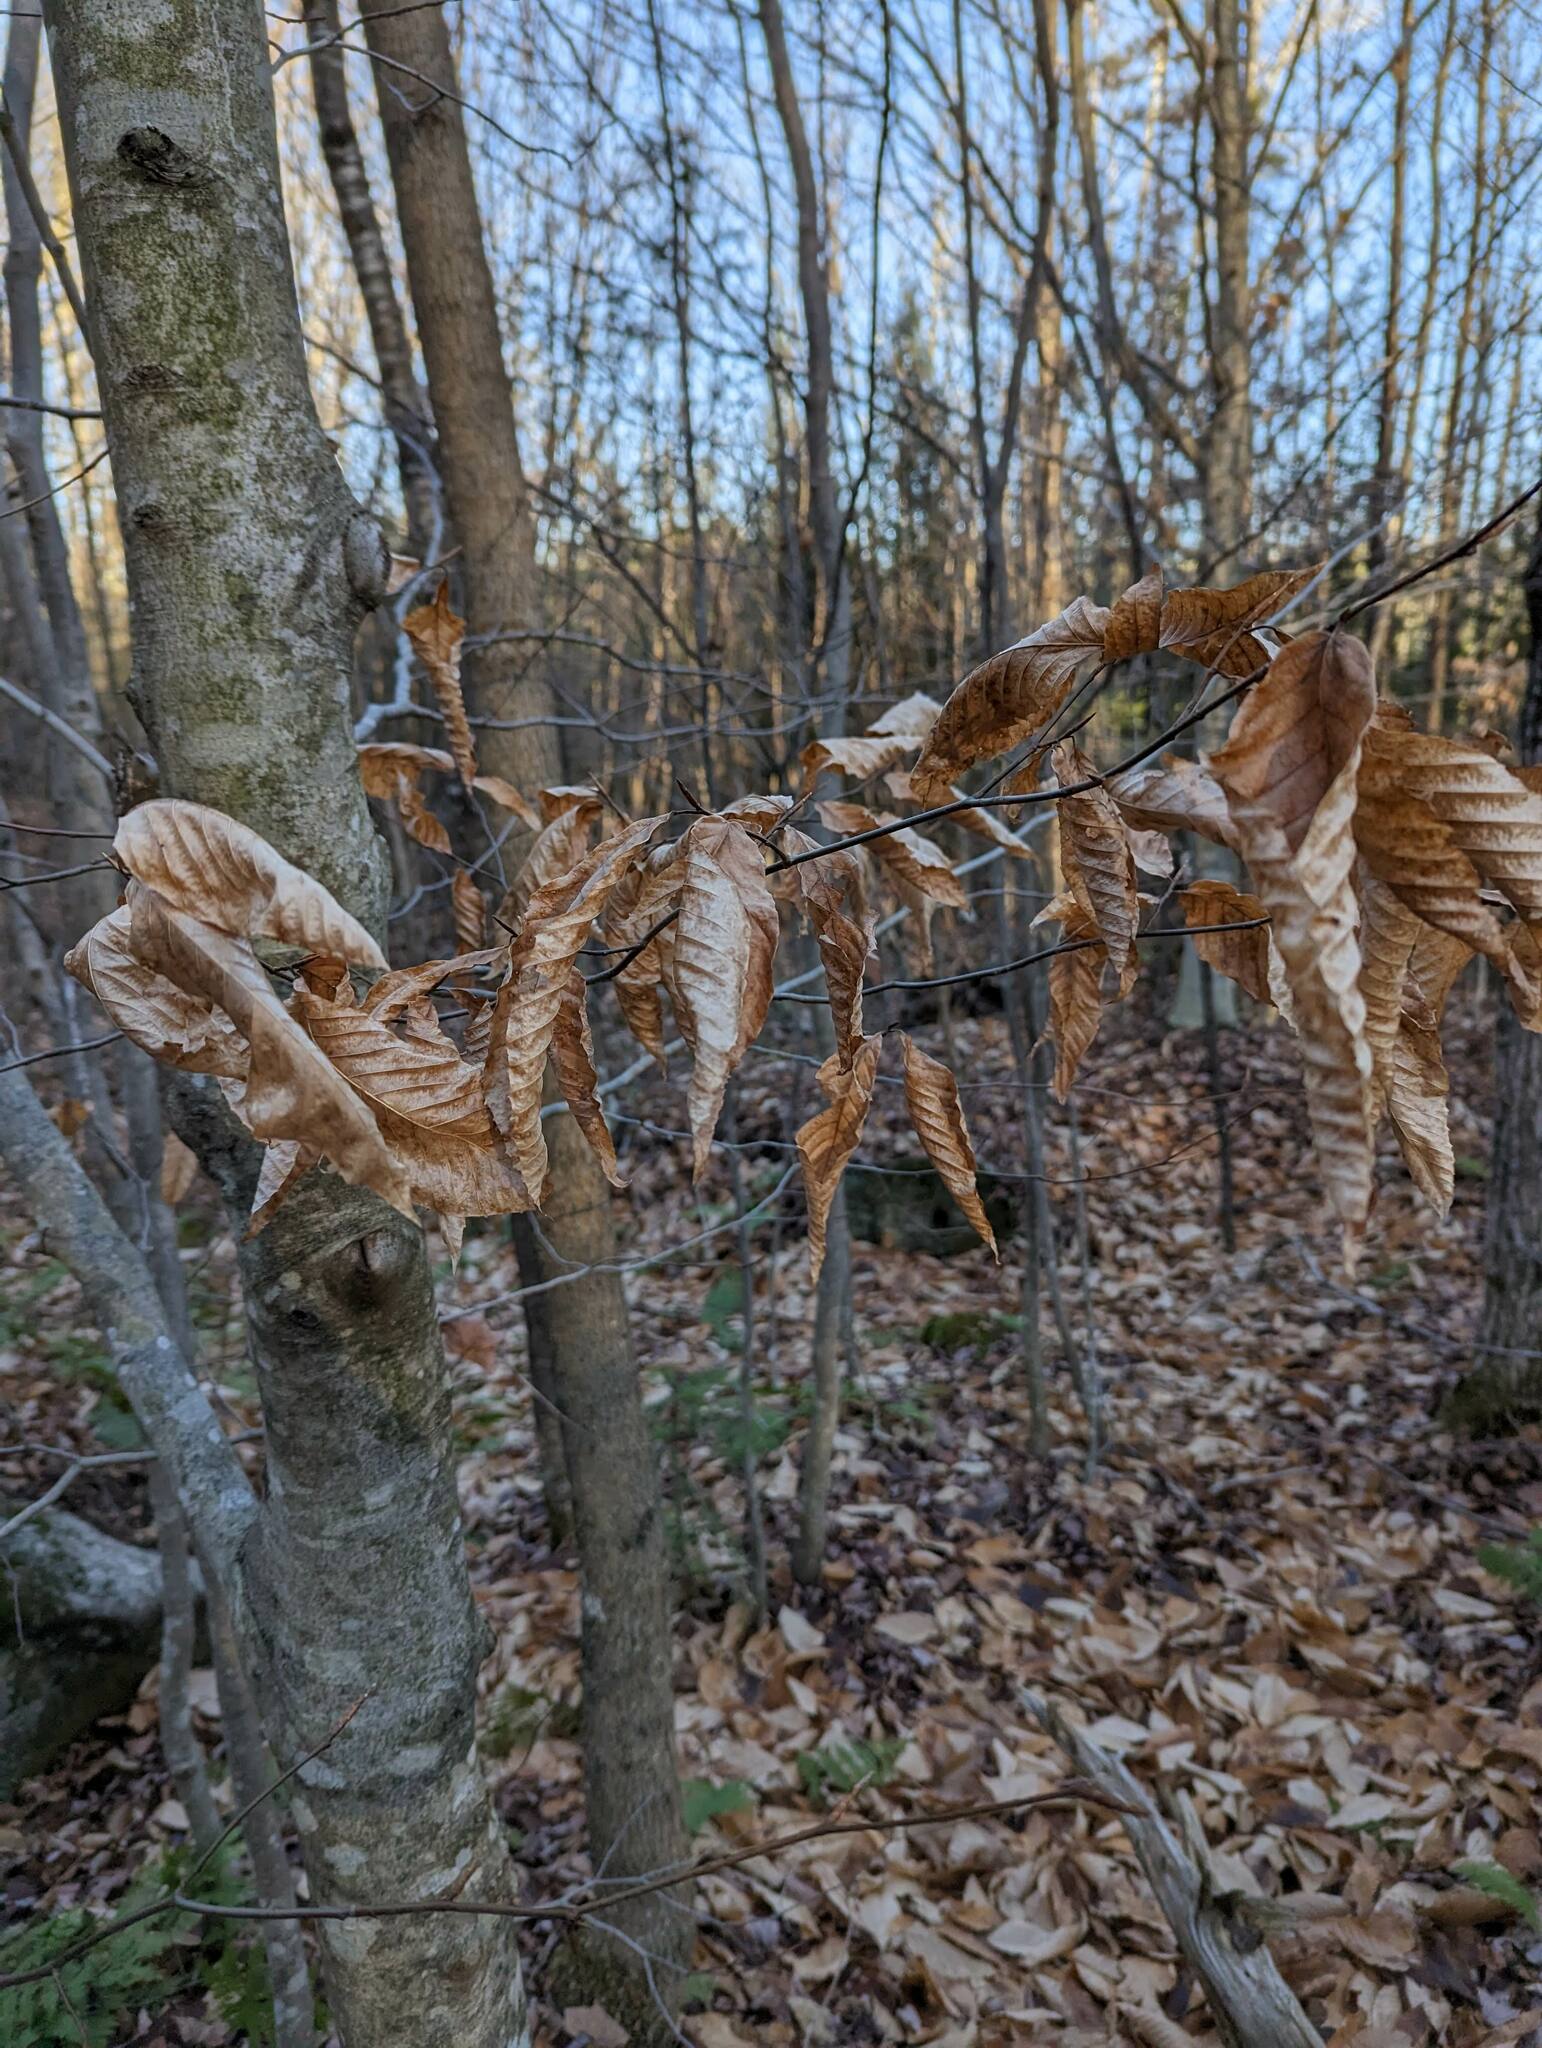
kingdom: Plantae
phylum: Tracheophyta
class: Magnoliopsida
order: Fagales
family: Fagaceae
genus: Fagus
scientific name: Fagus grandifolia
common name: American beech
